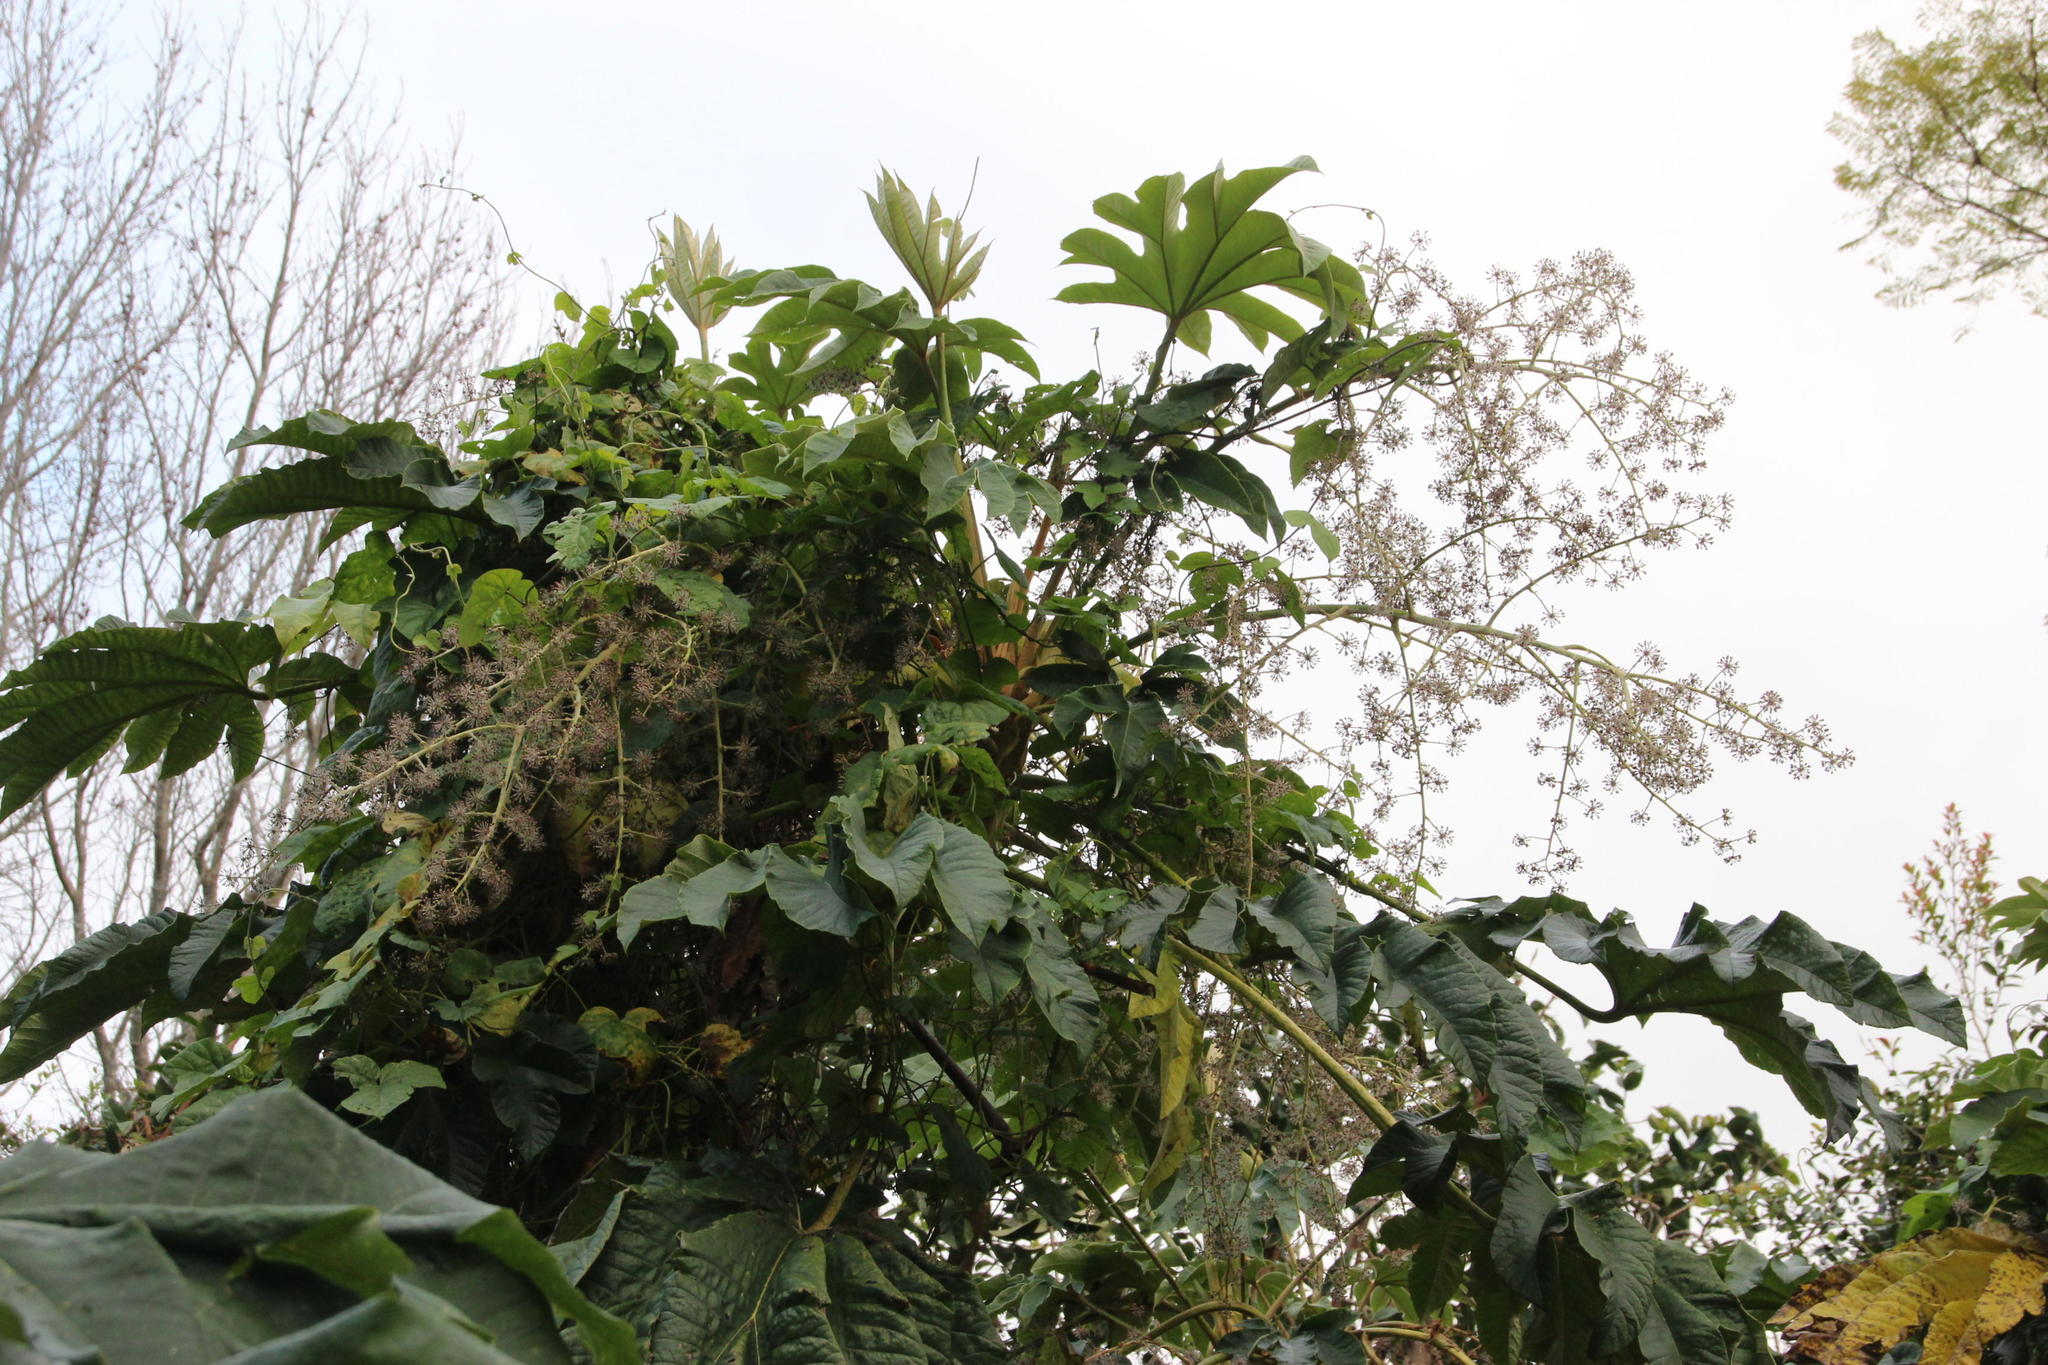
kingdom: Plantae
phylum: Tracheophyta
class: Magnoliopsida
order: Apiales
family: Araliaceae
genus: Tetrapanax
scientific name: Tetrapanax papyrifer
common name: Rice-paper plant
